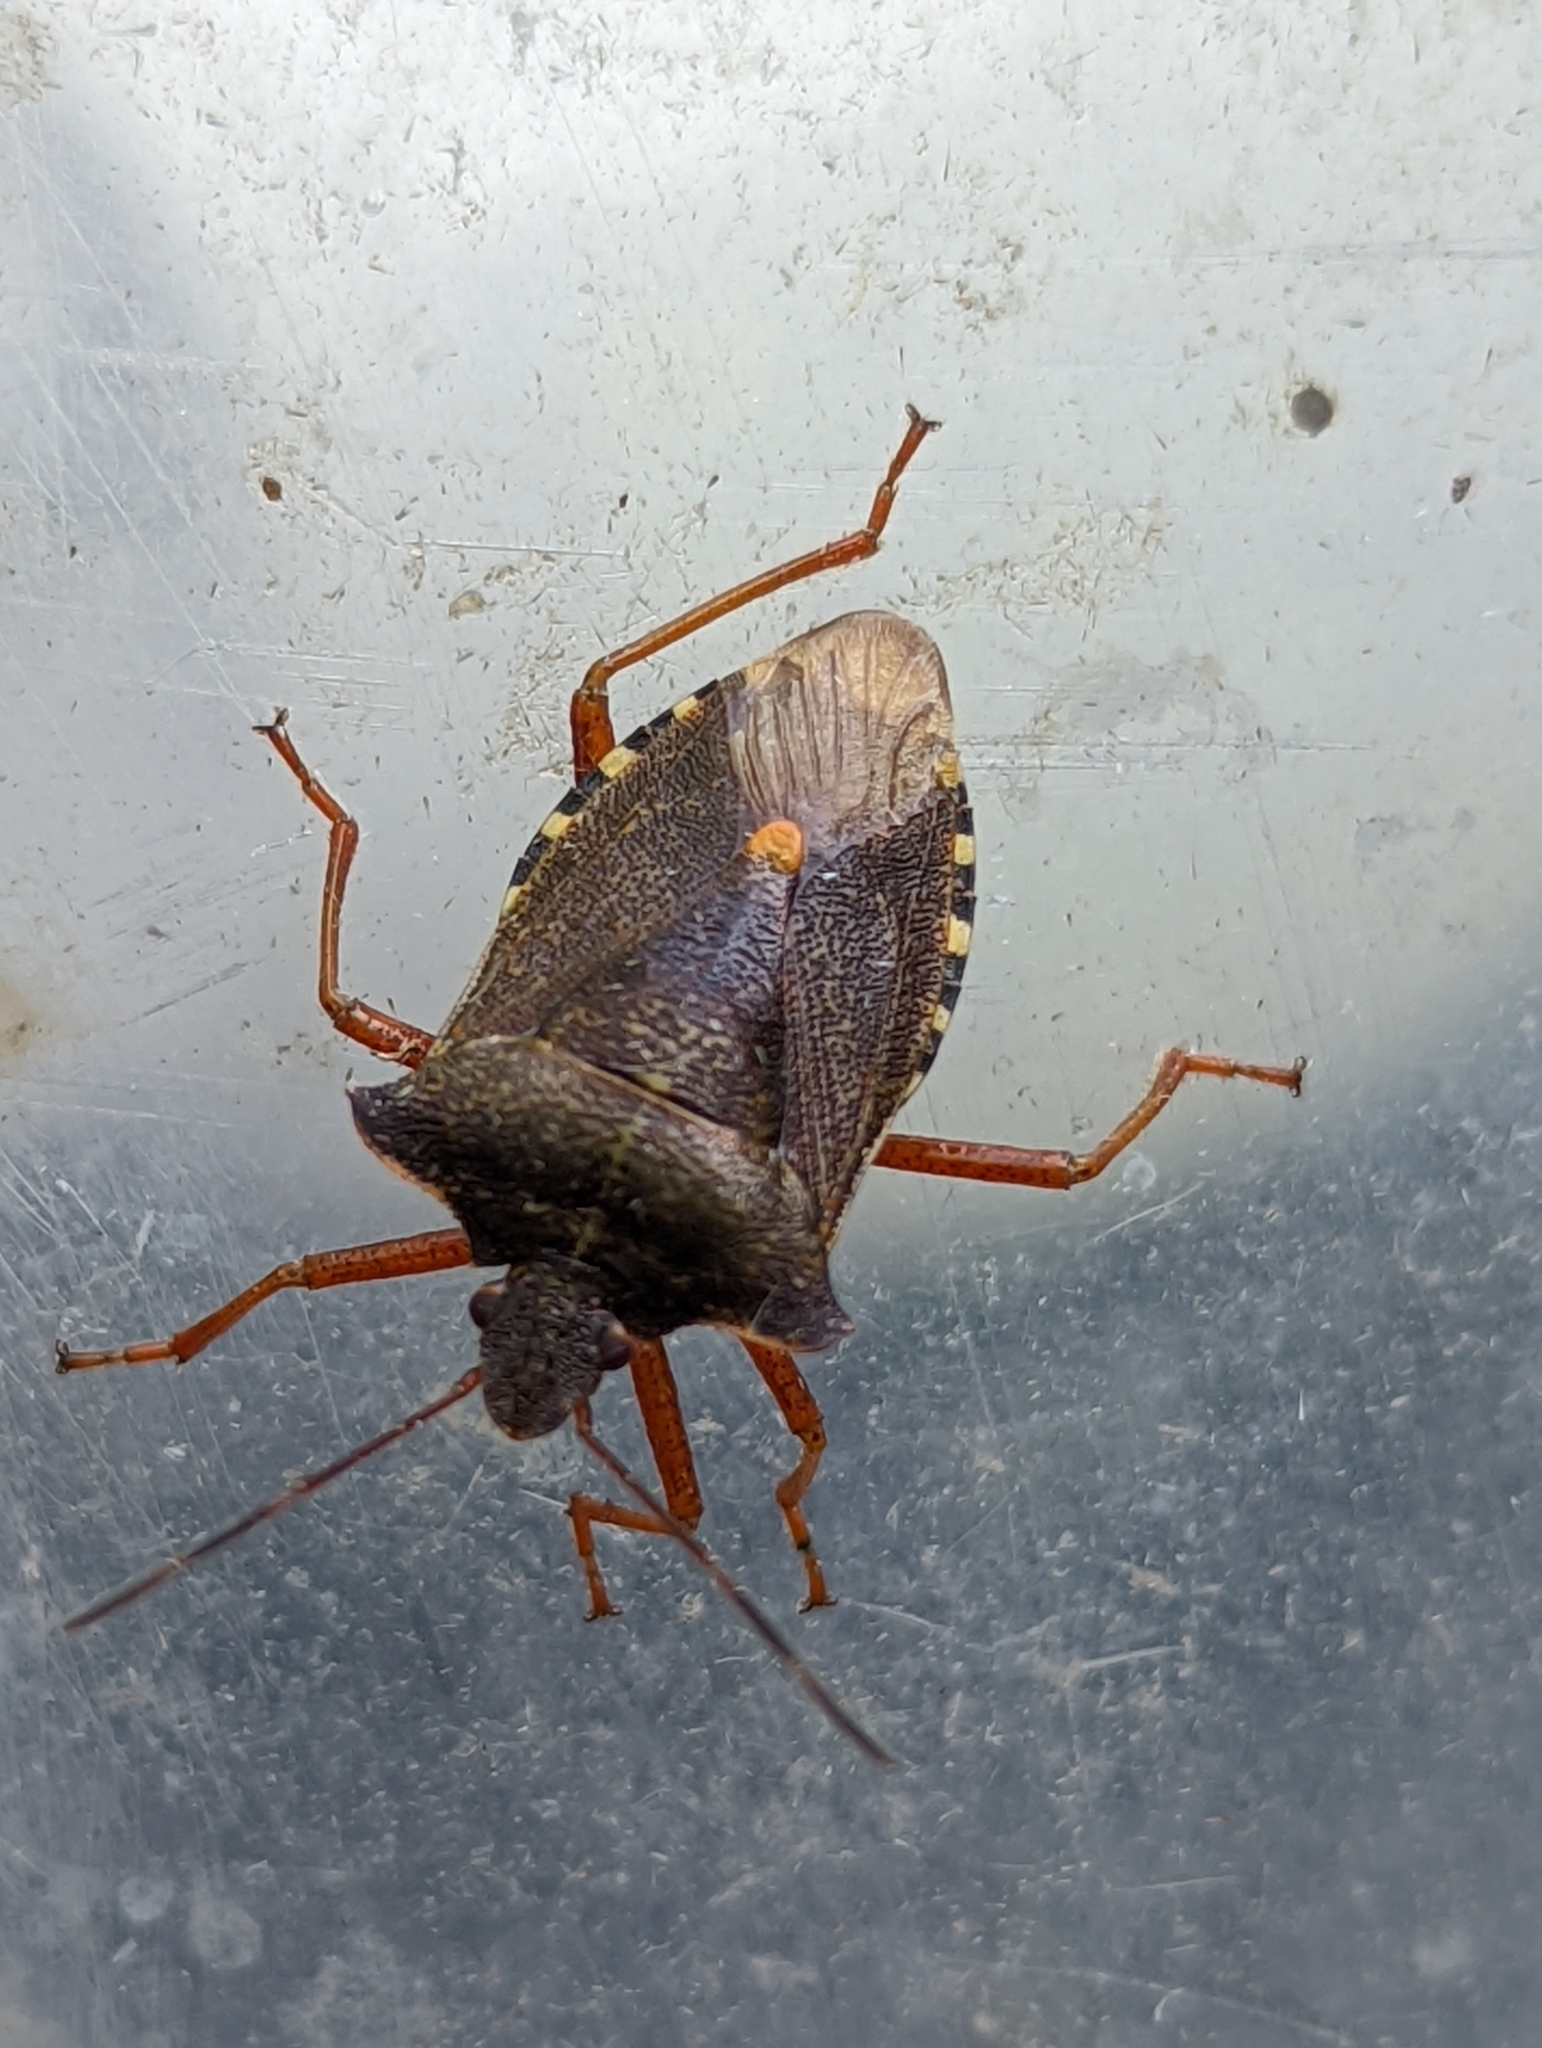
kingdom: Animalia
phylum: Arthropoda
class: Insecta
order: Hemiptera
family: Pentatomidae
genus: Pentatoma
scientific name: Pentatoma rufipes
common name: Forest bug
